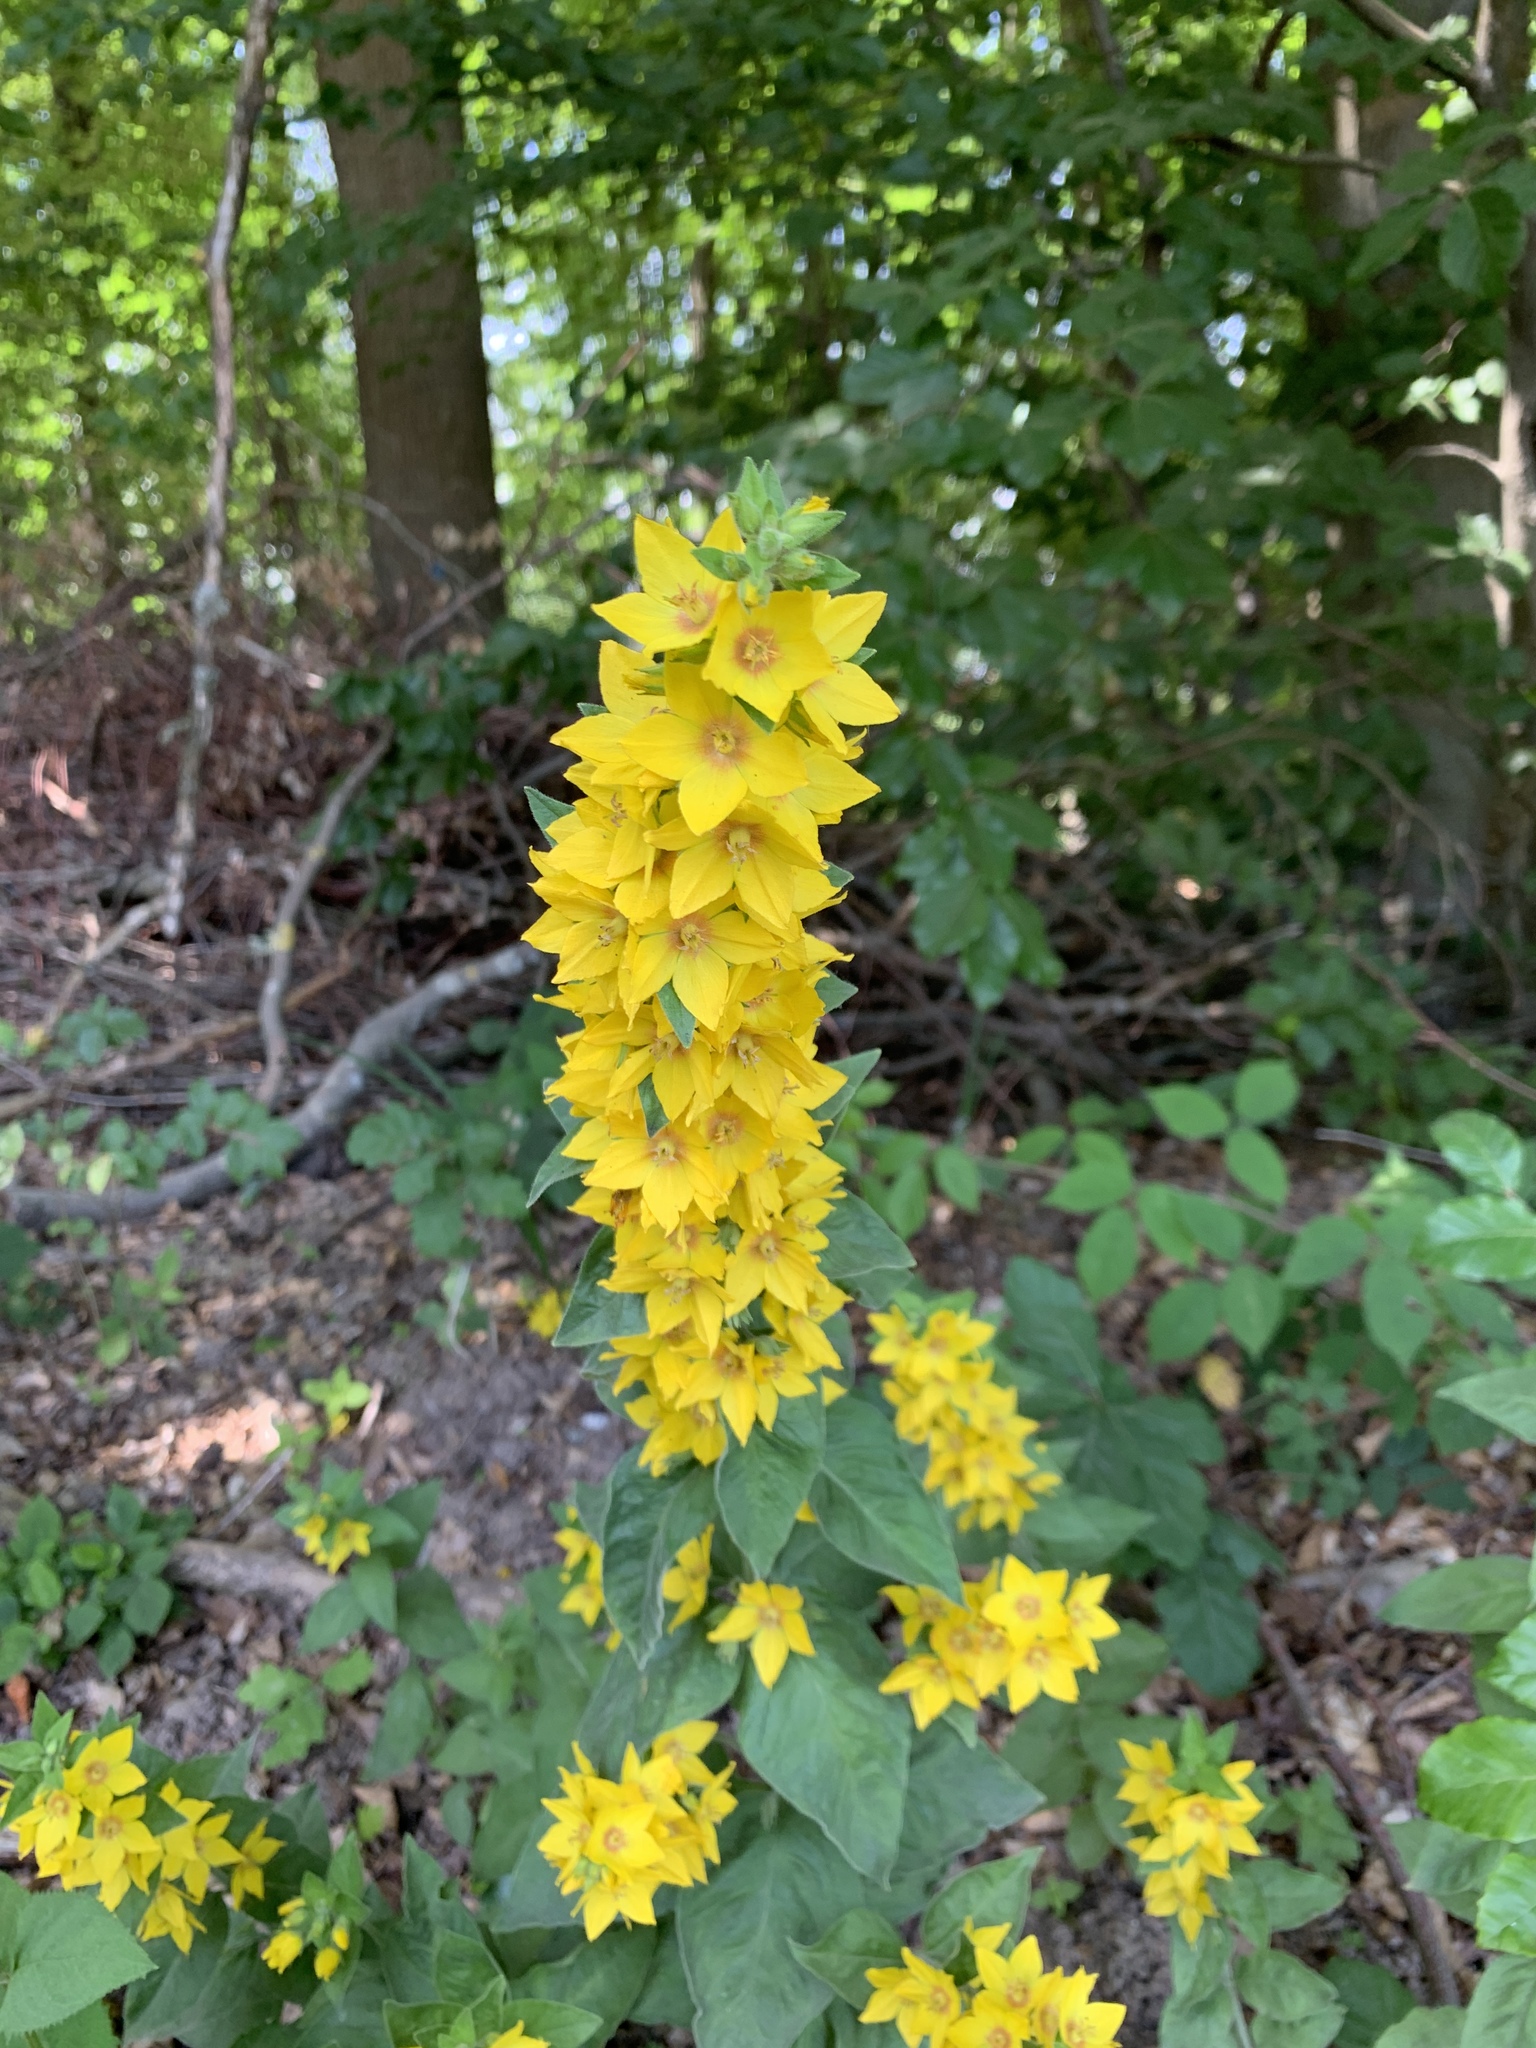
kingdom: Plantae
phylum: Tracheophyta
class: Magnoliopsida
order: Ericales
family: Primulaceae
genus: Lysimachia
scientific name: Lysimachia punctata
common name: Dotted loosestrife
